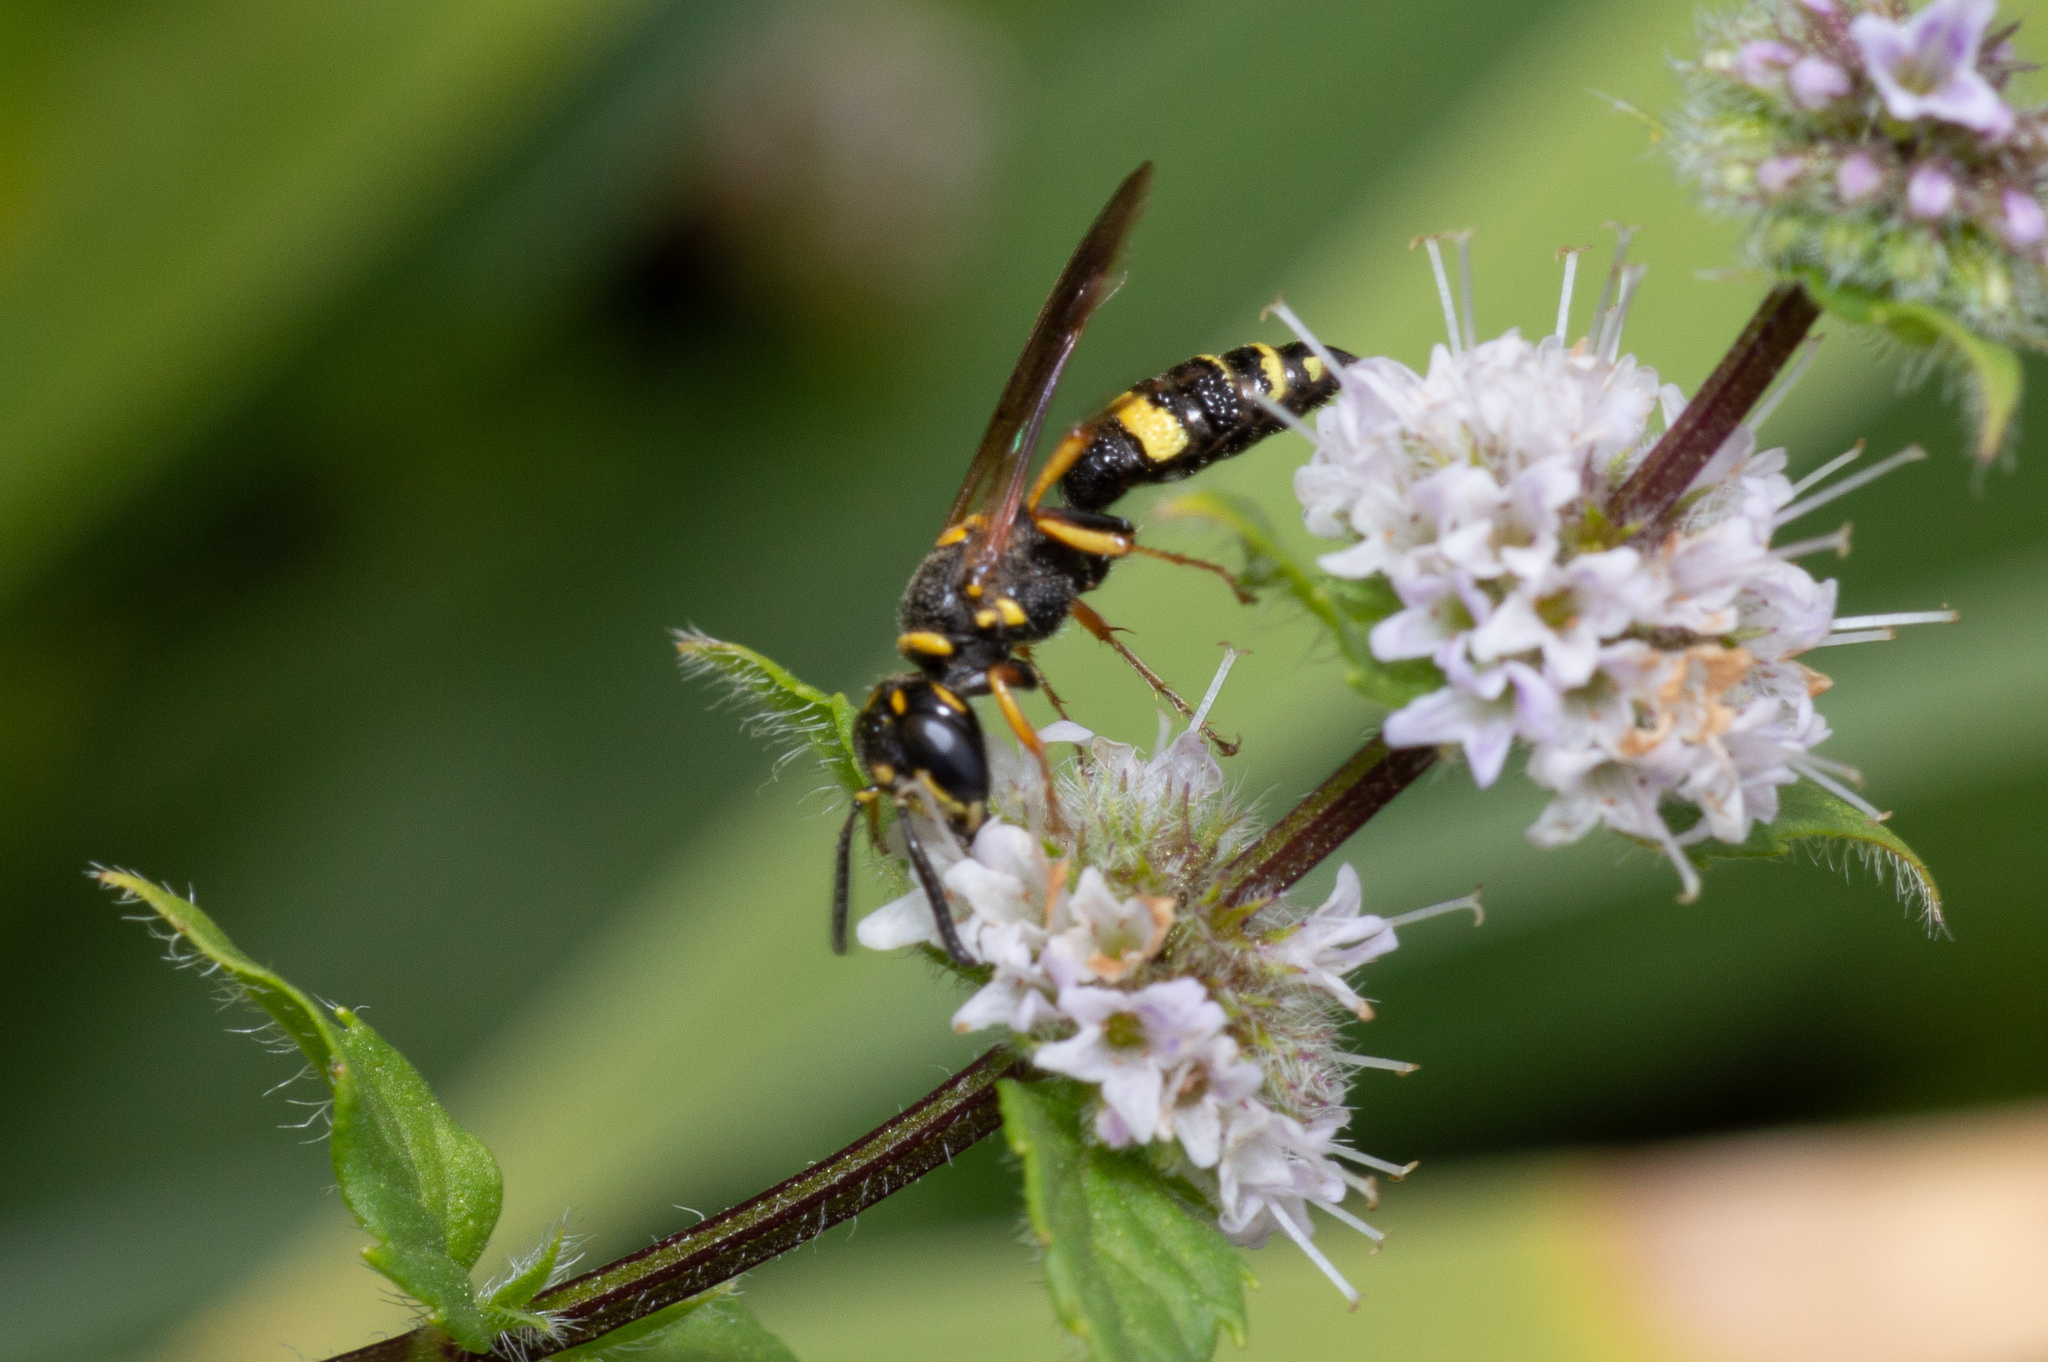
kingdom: Animalia
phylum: Arthropoda
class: Insecta
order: Hymenoptera
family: Crabronidae
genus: Philanthus
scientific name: Philanthus gibbosus
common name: Humped beewolf
